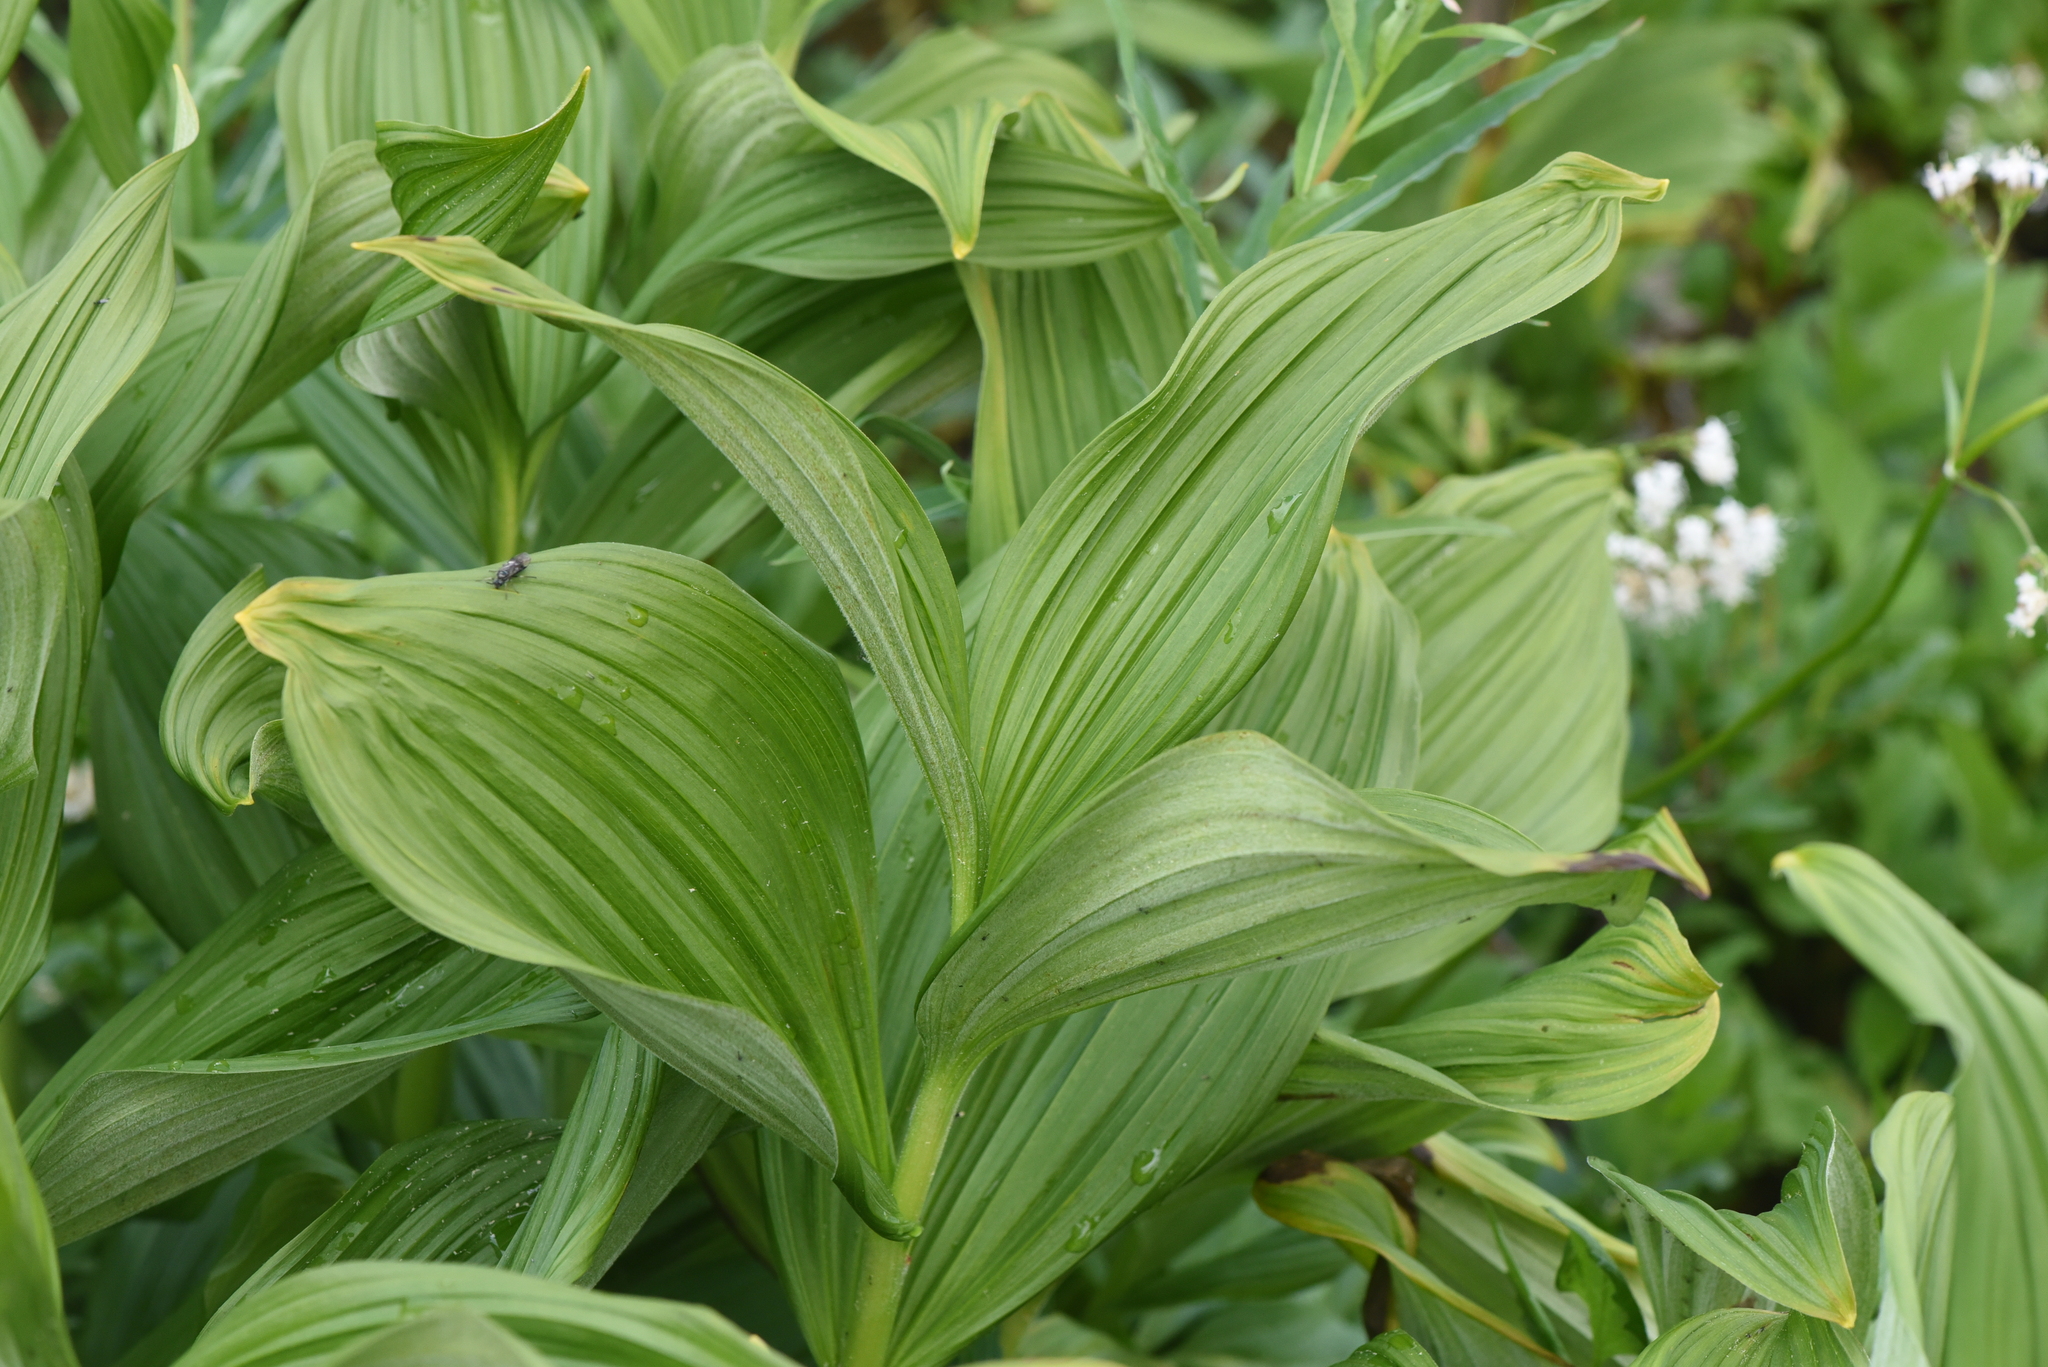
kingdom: Plantae
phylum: Tracheophyta
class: Liliopsida
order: Liliales
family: Melanthiaceae
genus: Veratrum
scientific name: Veratrum viride
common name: American false hellebore
